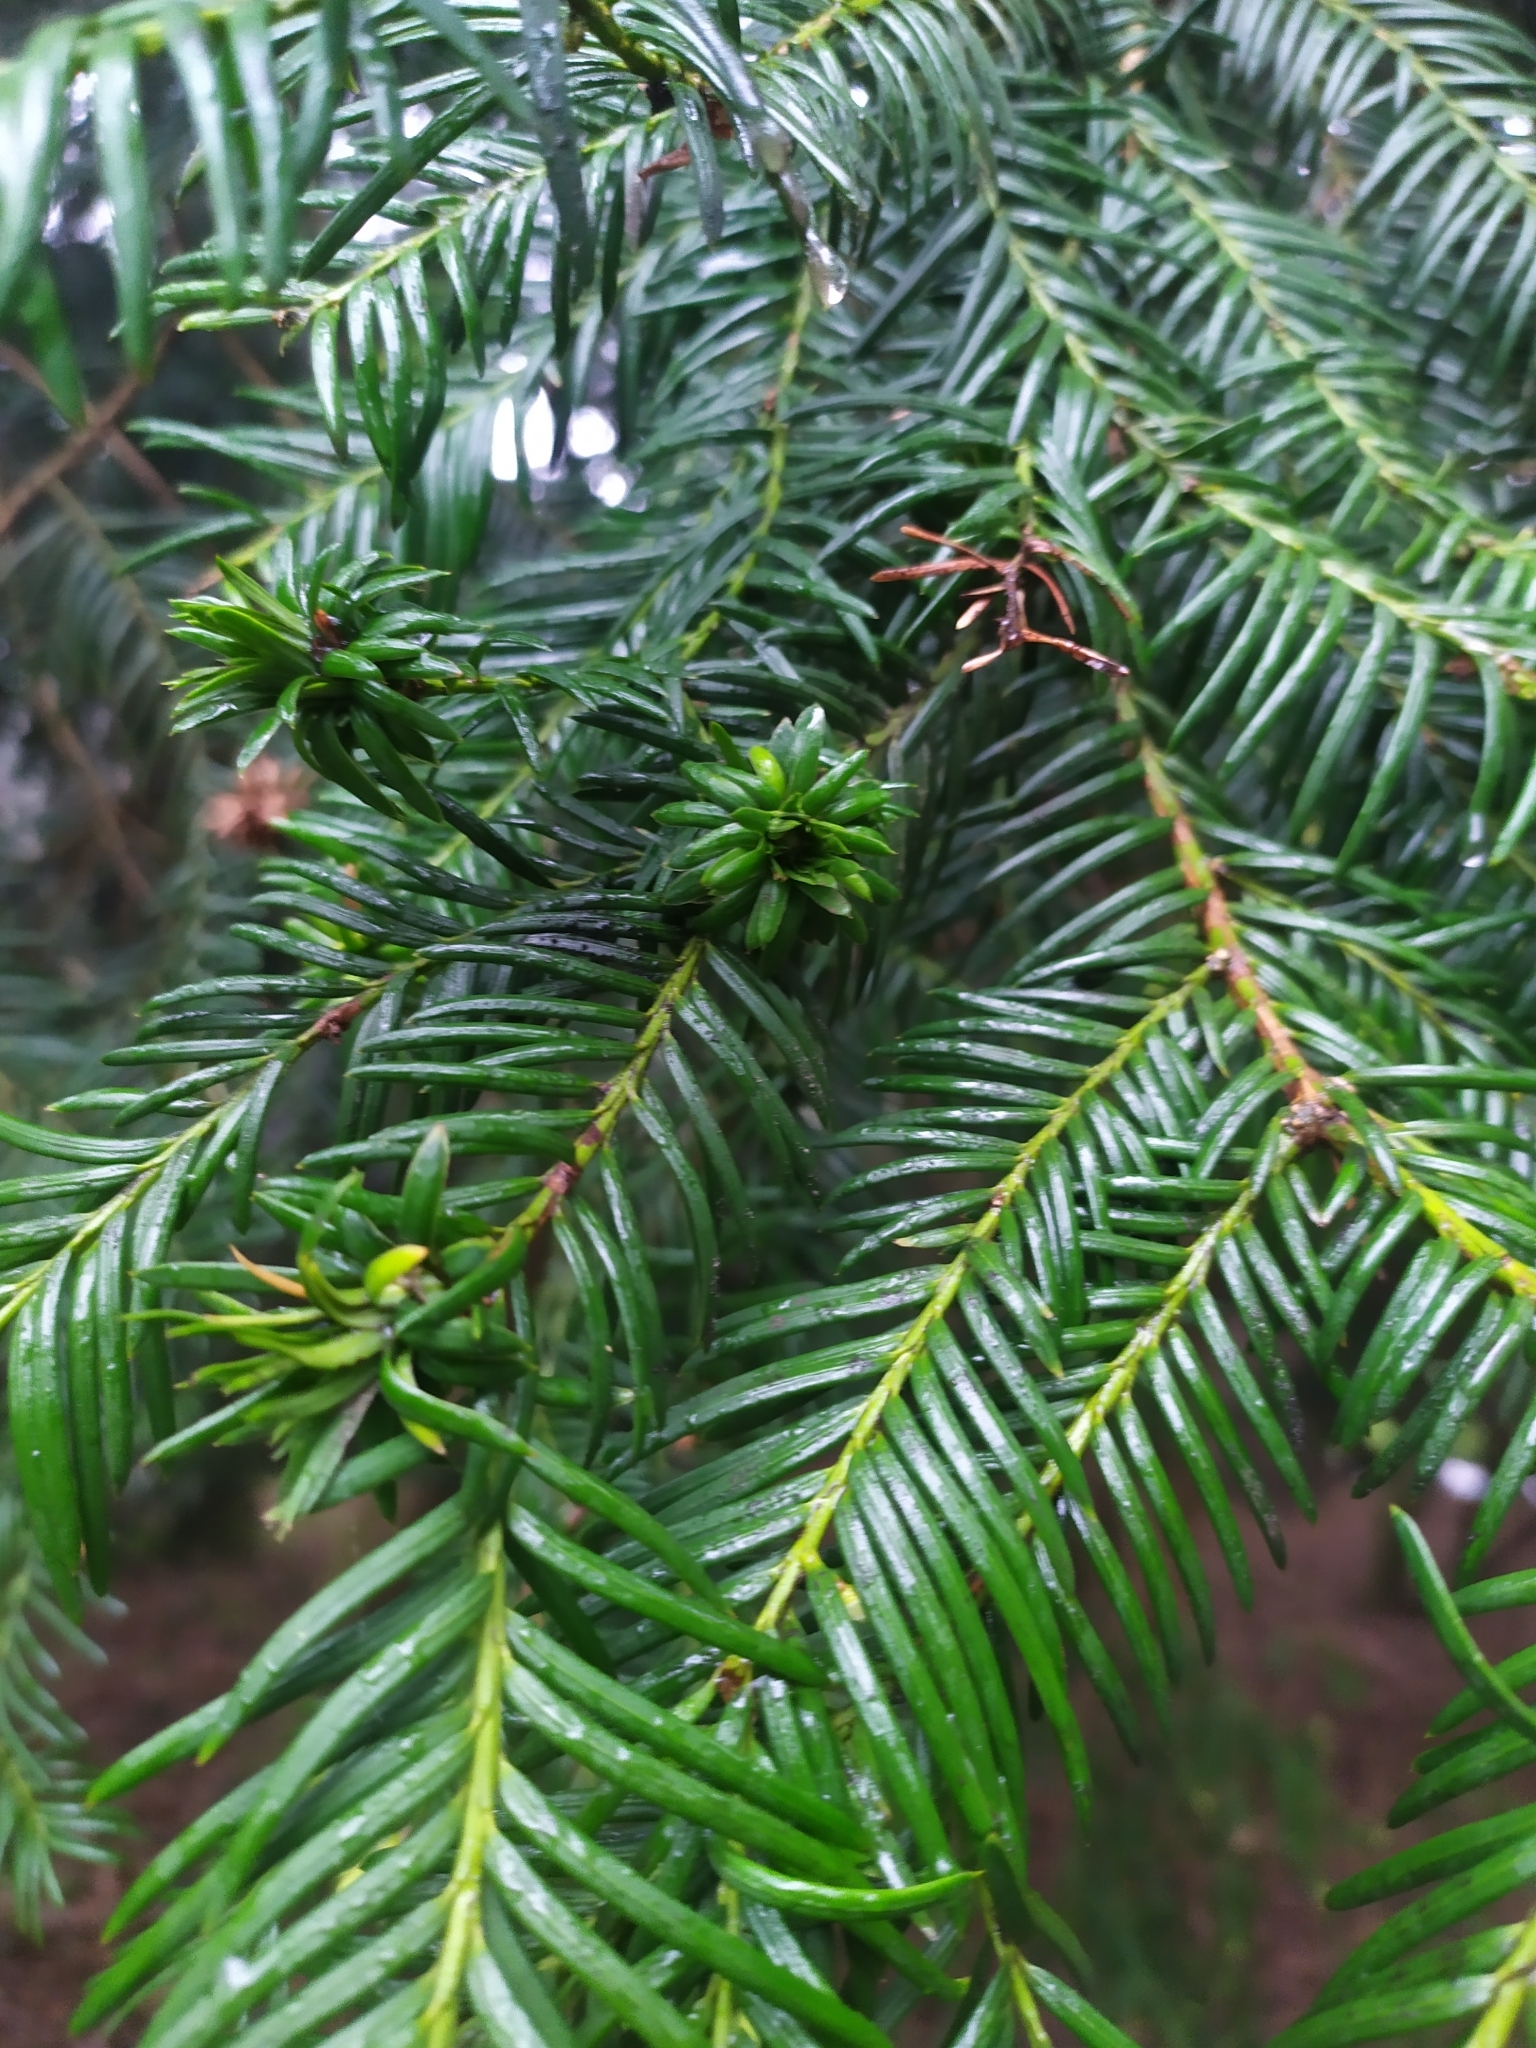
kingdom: Animalia
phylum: Arthropoda
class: Insecta
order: Diptera
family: Cecidomyiidae
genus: Taxomyia
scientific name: Taxomyia taxi
